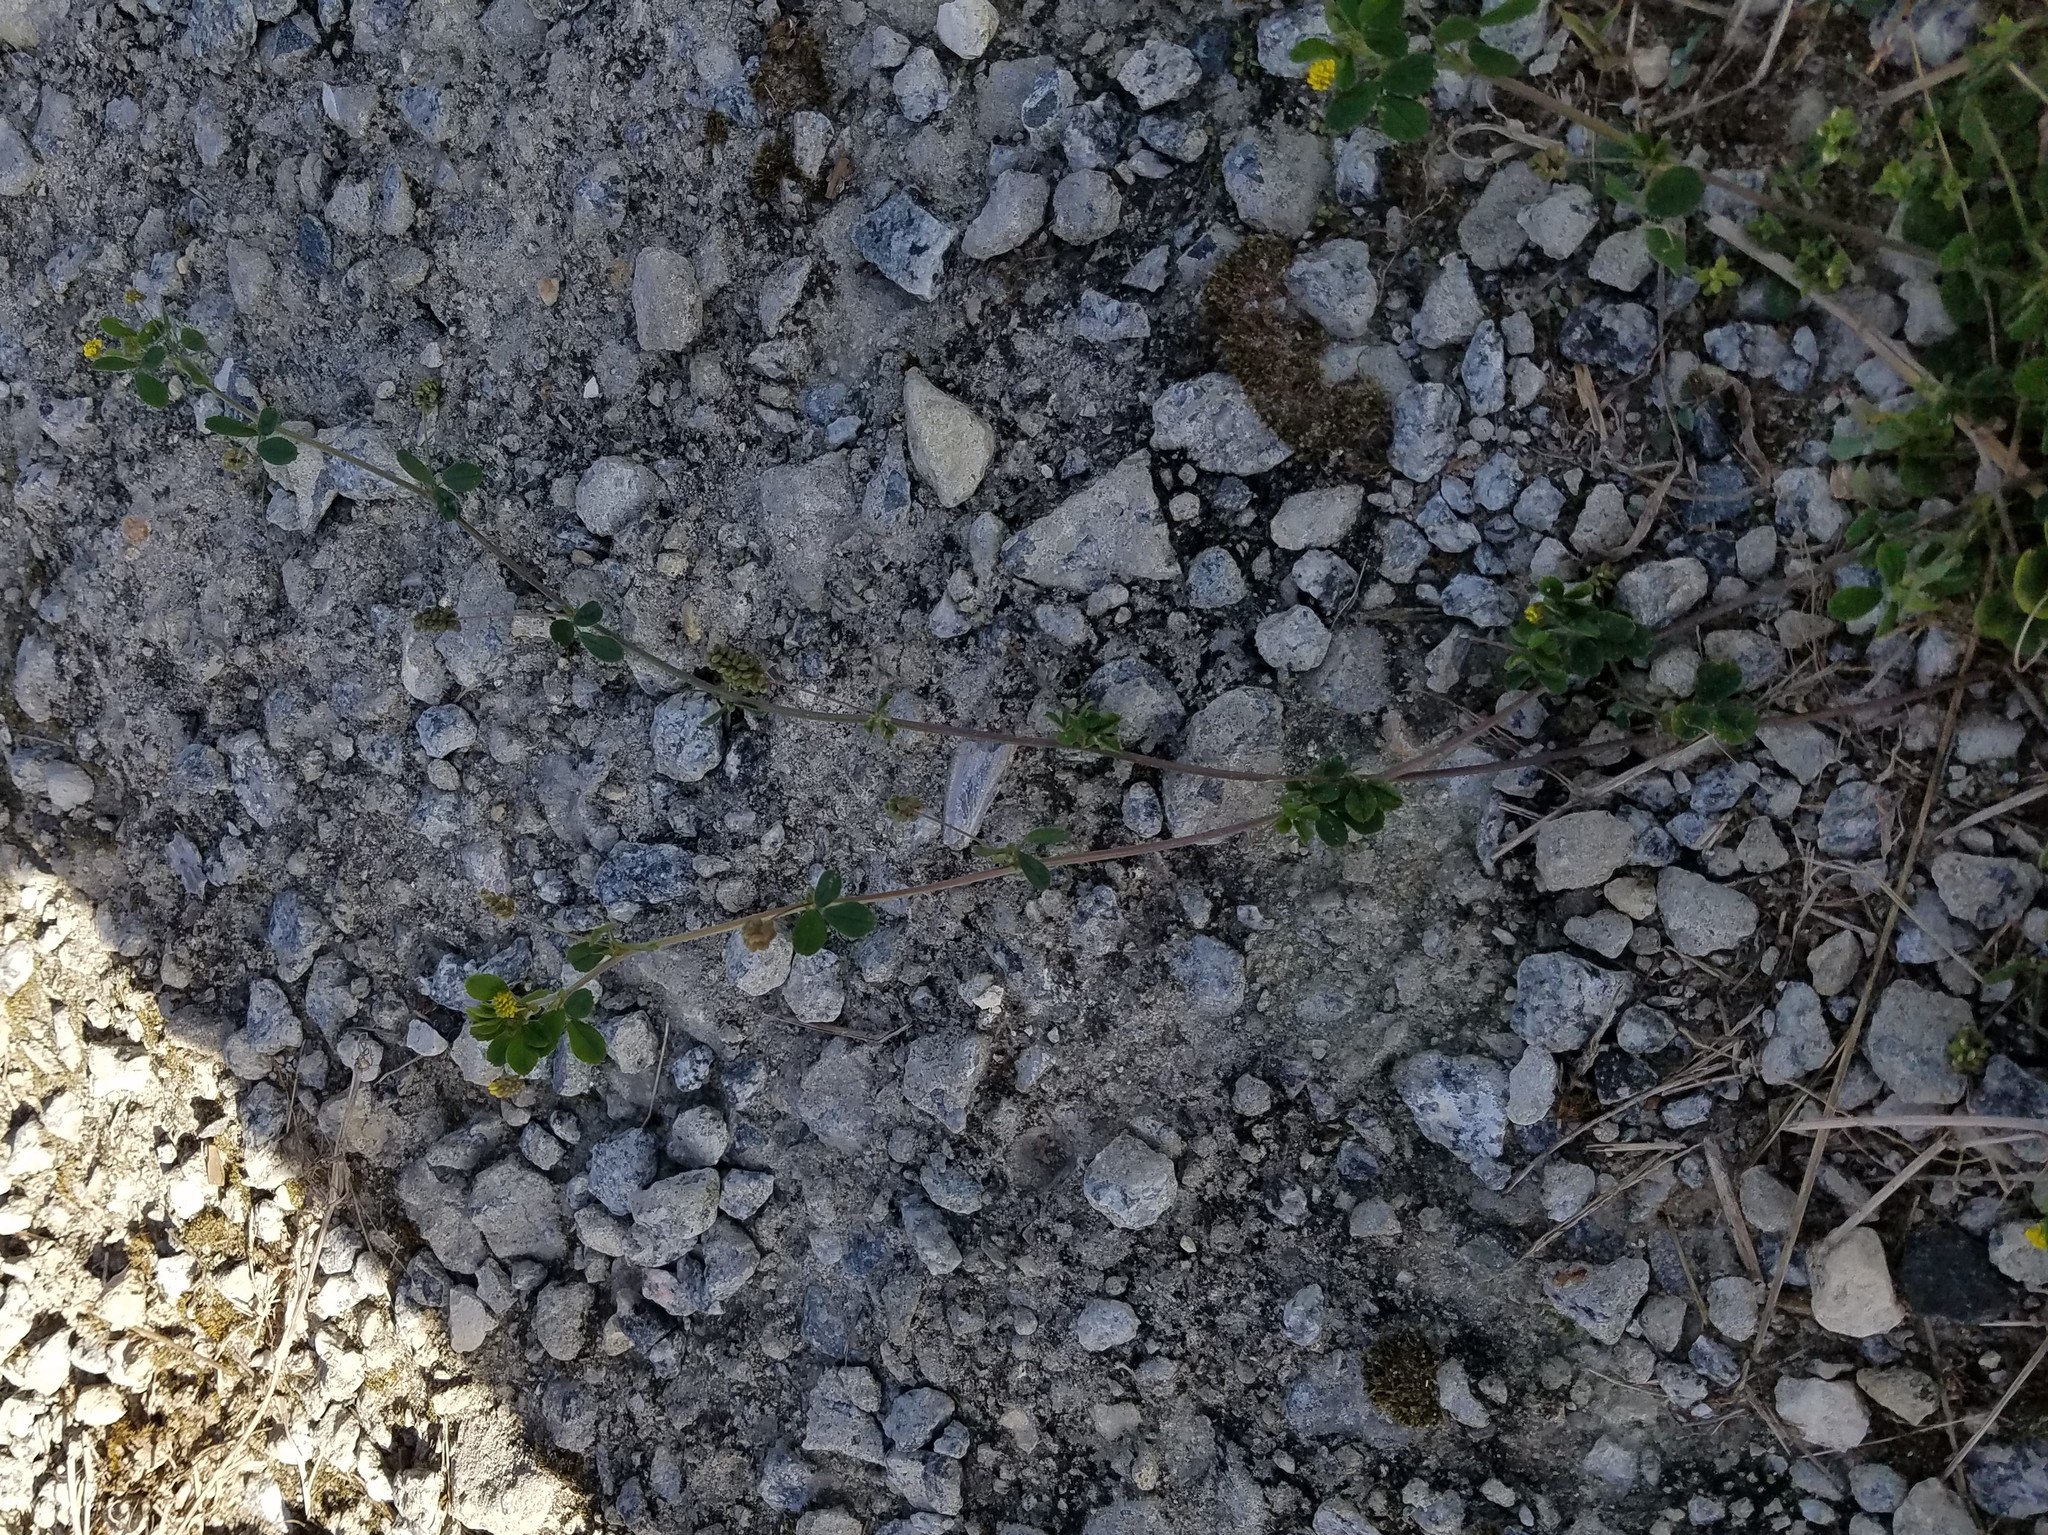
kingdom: Plantae
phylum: Tracheophyta
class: Magnoliopsida
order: Fabales
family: Fabaceae
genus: Medicago
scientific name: Medicago lupulina
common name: Black medick
